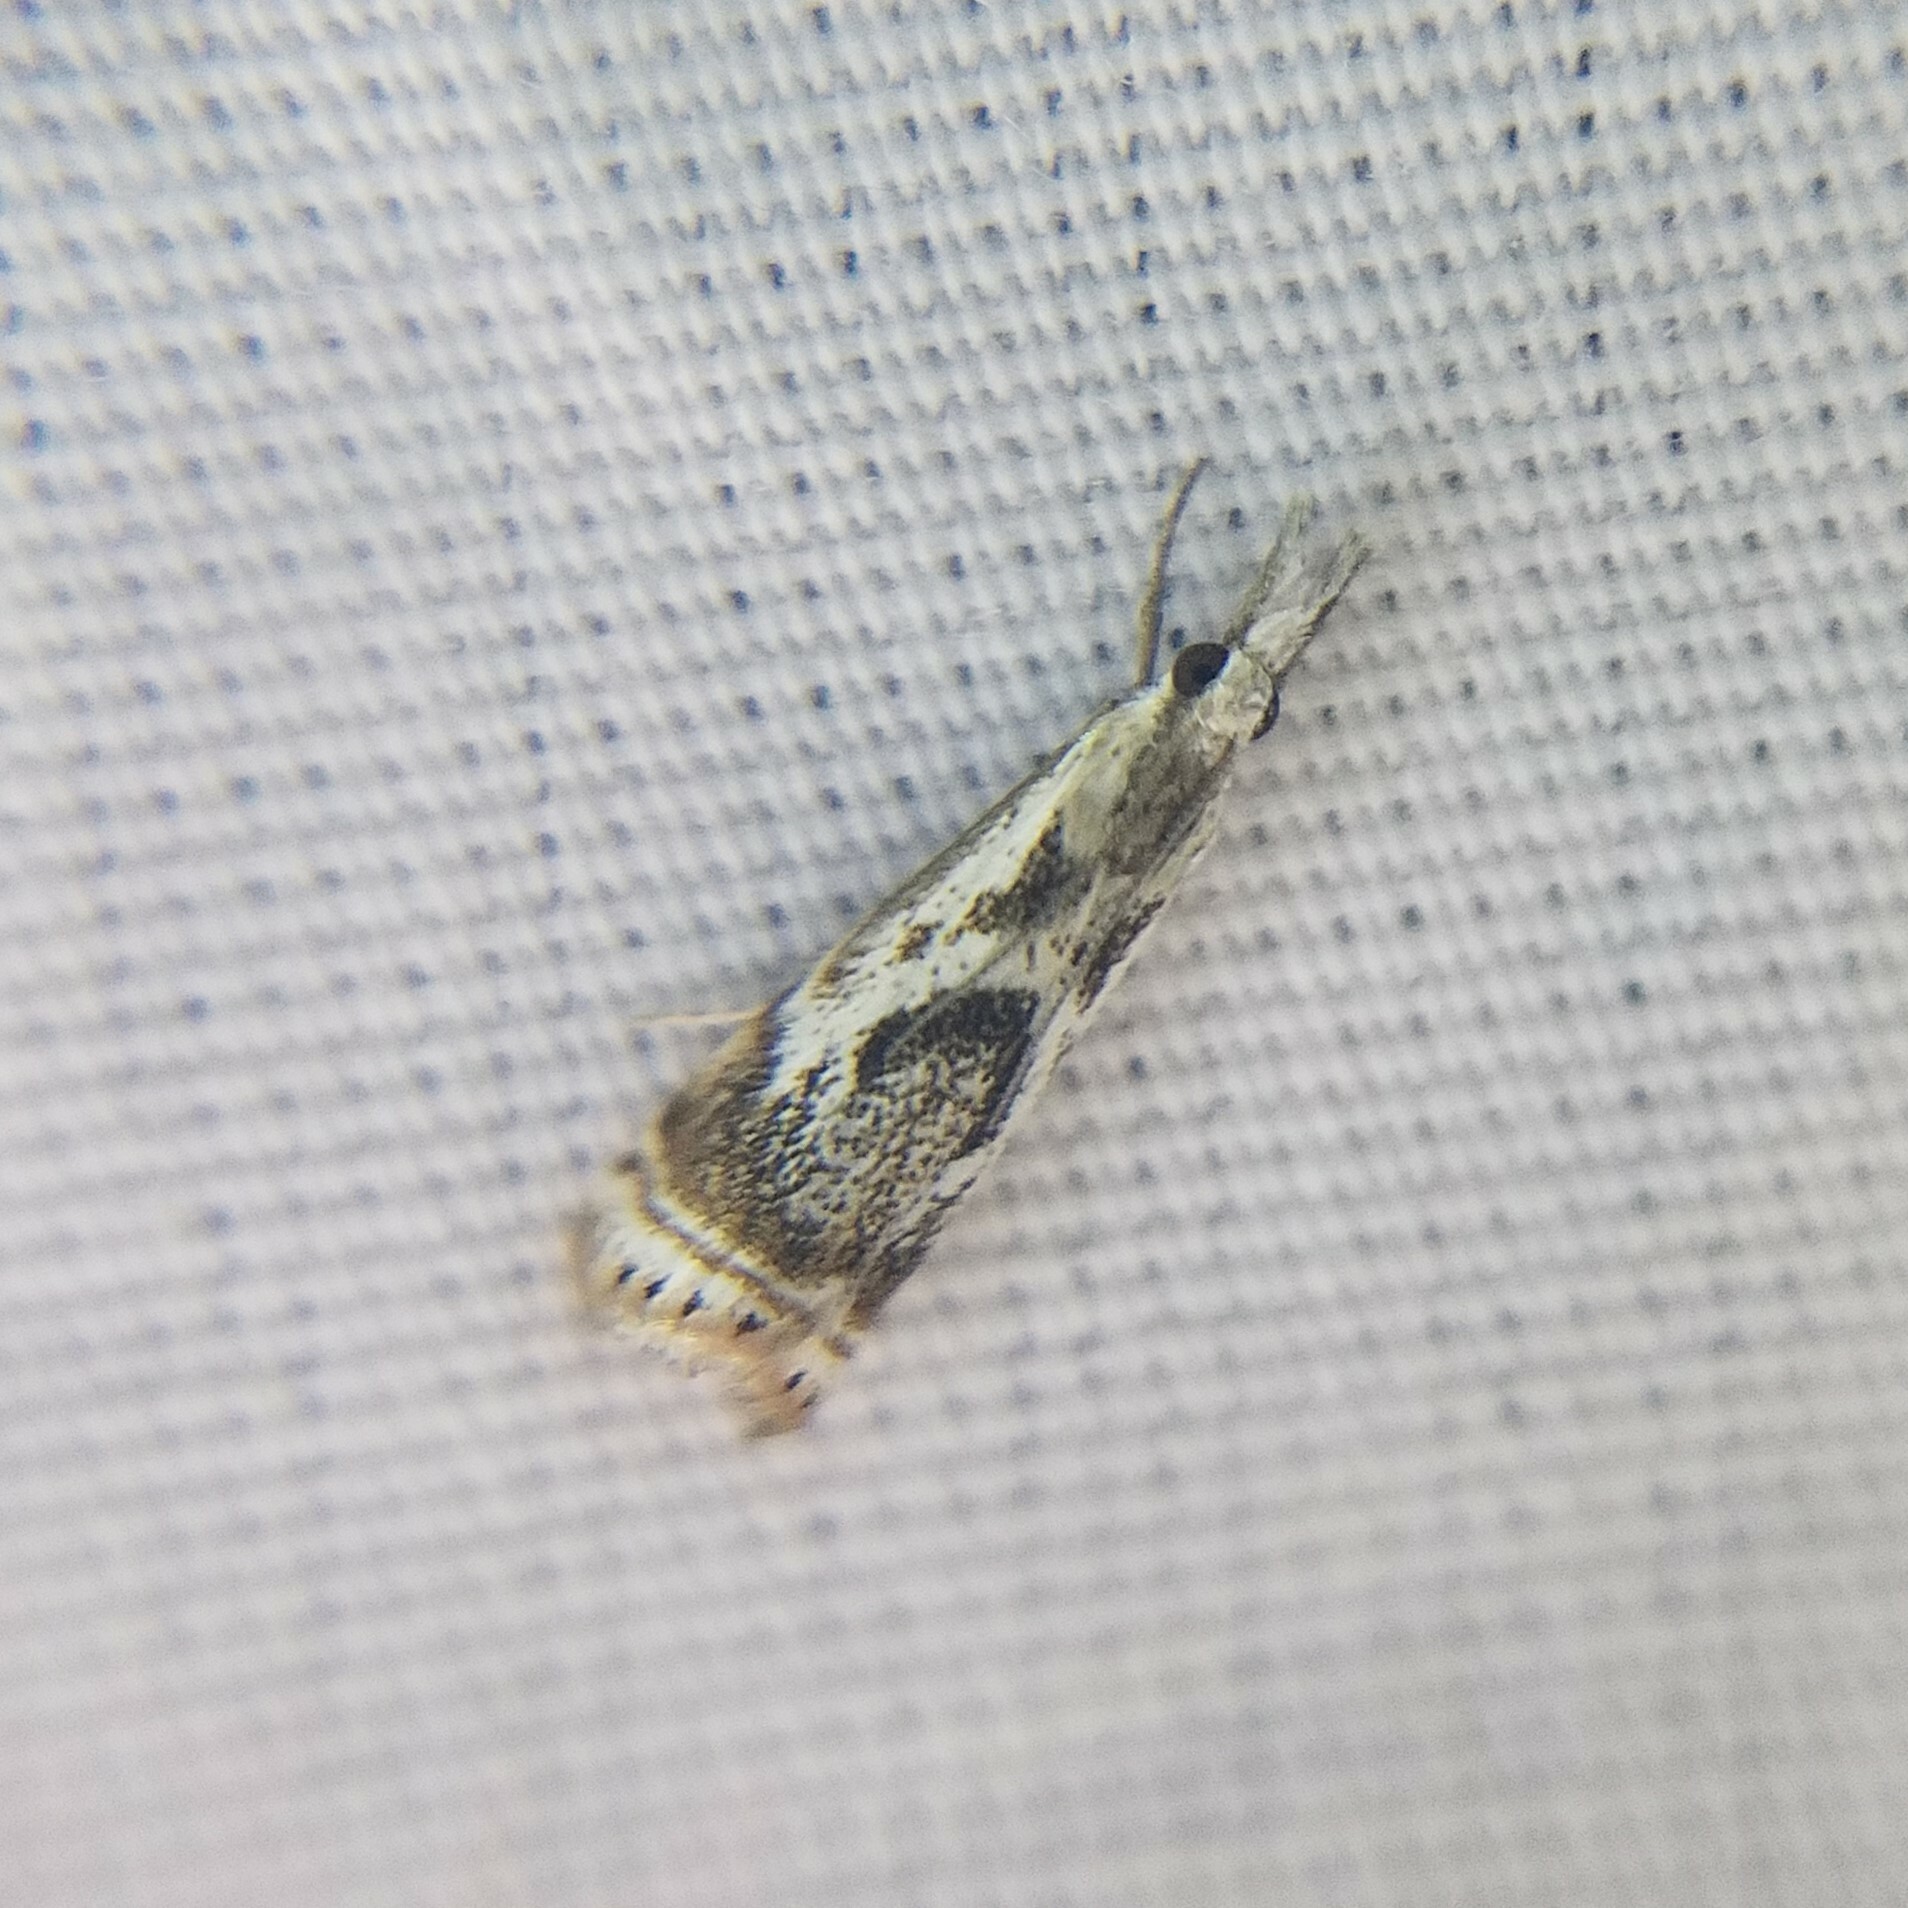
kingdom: Animalia
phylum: Arthropoda
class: Insecta
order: Lepidoptera
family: Crambidae
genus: Microcrambus
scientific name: Microcrambus elegans
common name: Elegant grass-veneer
